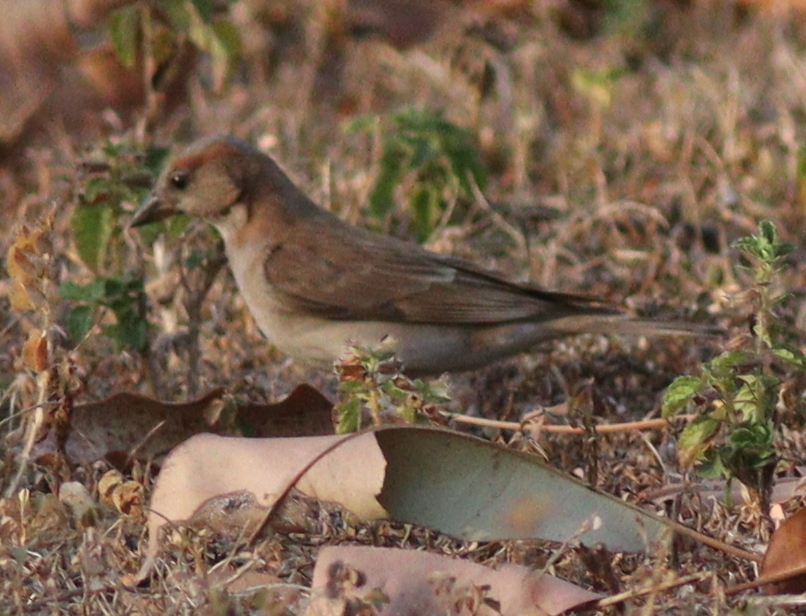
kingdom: Animalia
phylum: Chordata
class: Aves
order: Passeriformes
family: Passeridae
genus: Gymnoris
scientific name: Gymnoris dentata
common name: Bush petronia
